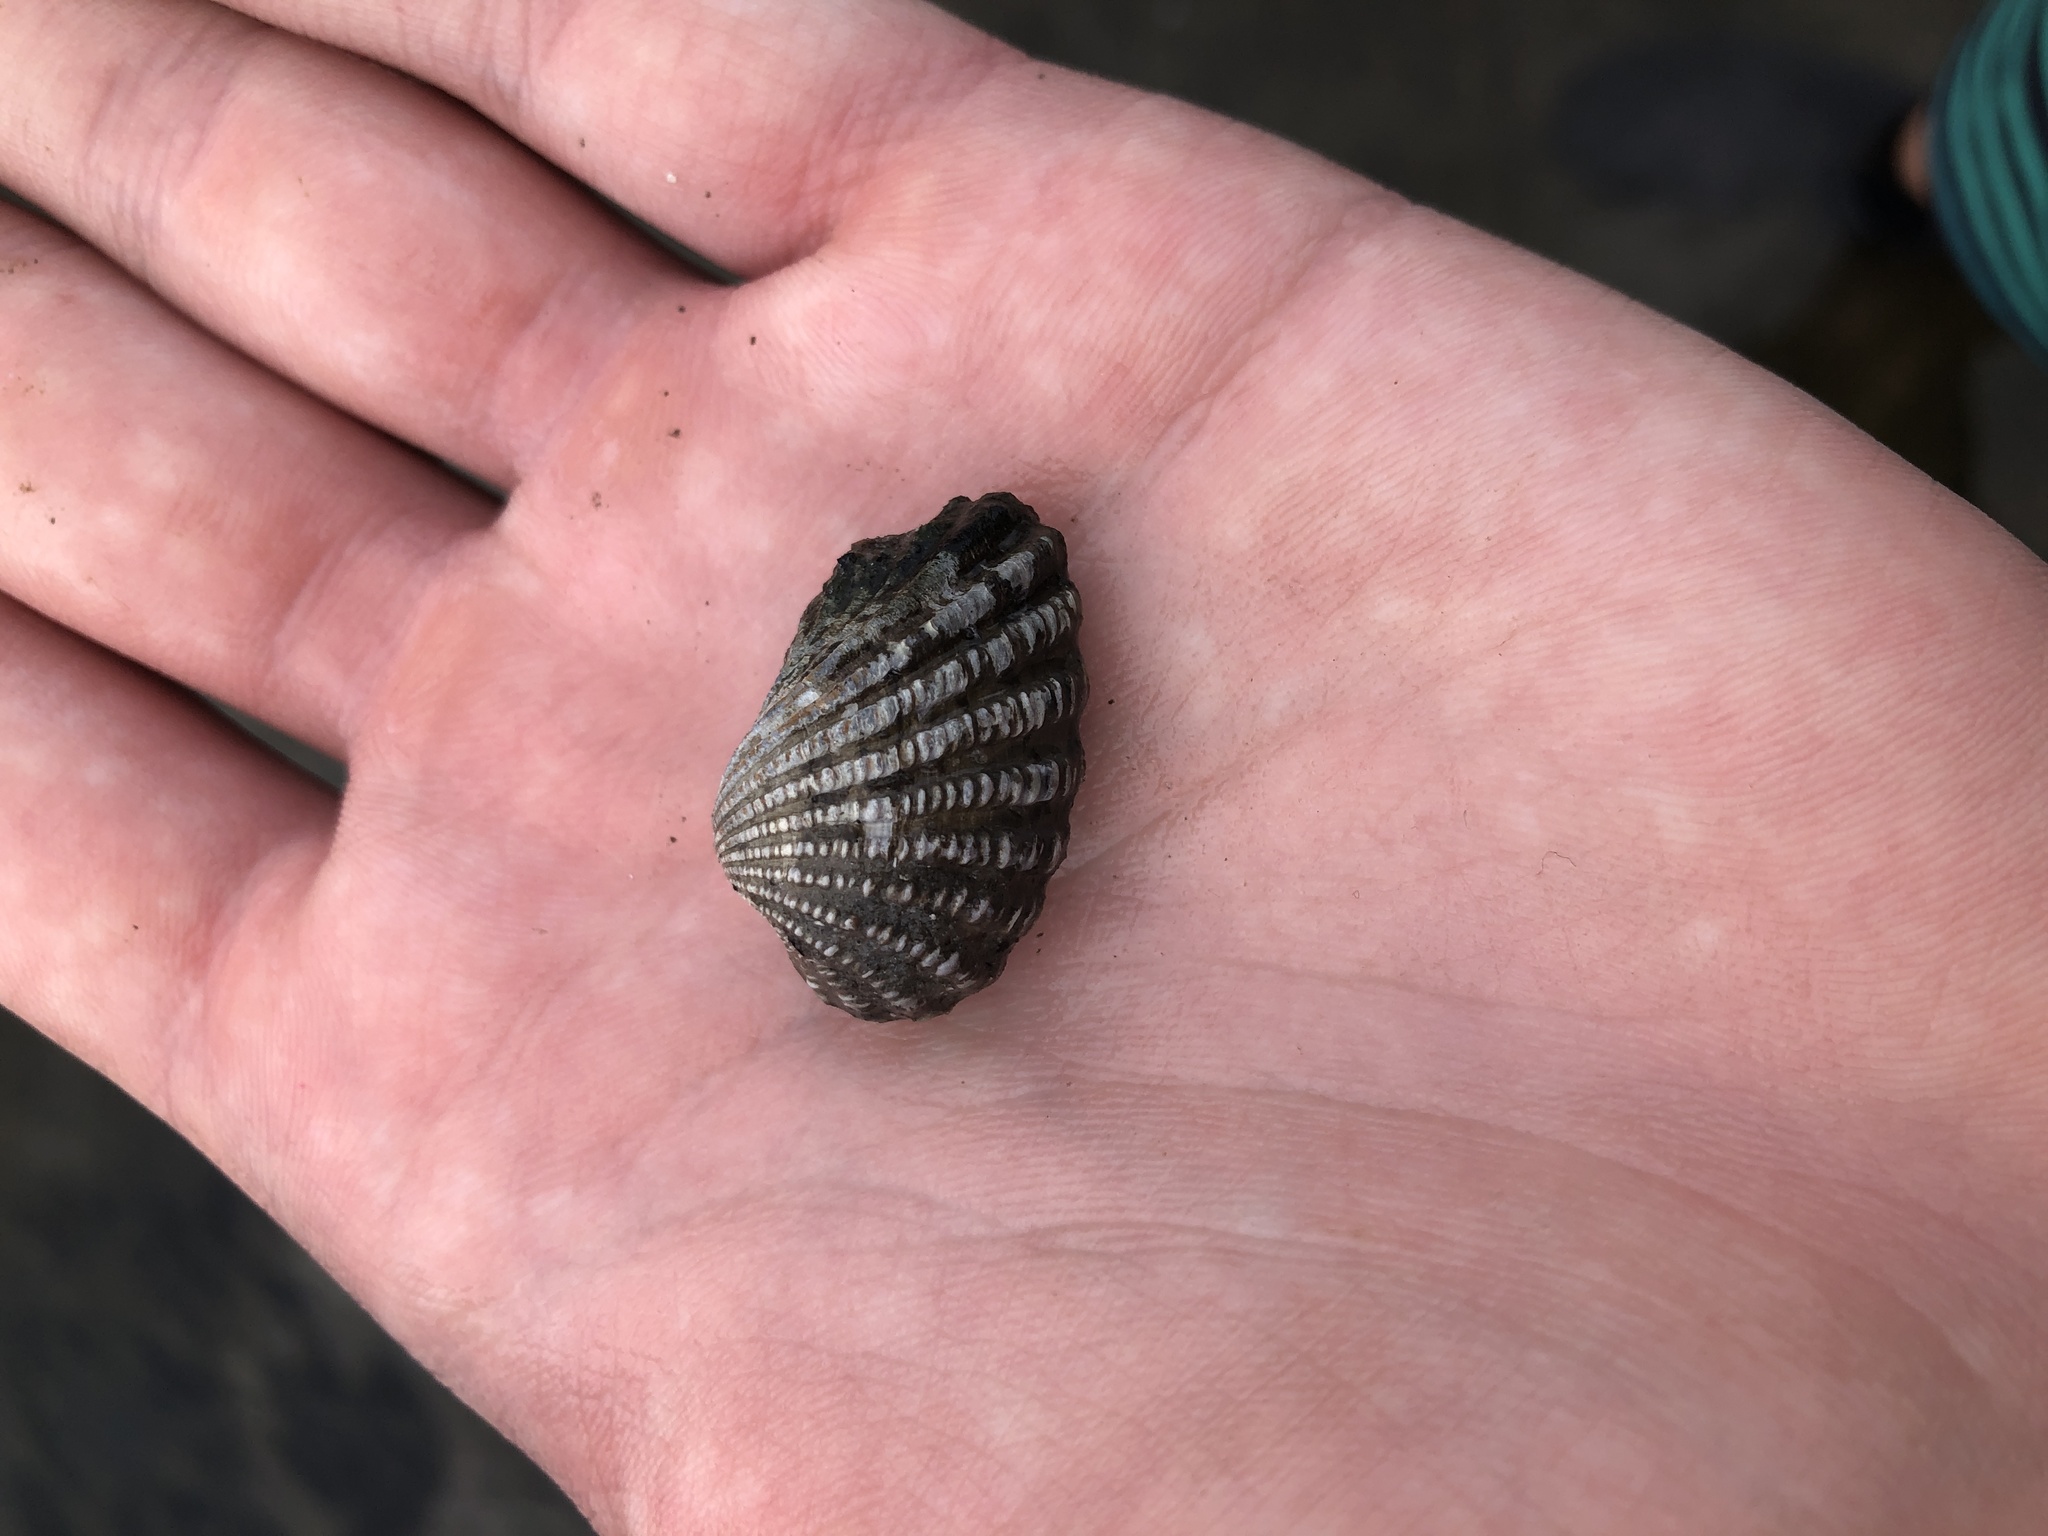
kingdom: Animalia
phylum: Mollusca
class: Bivalvia
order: Carditida
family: Carditidae
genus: Cardites
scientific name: Cardites floridanus
